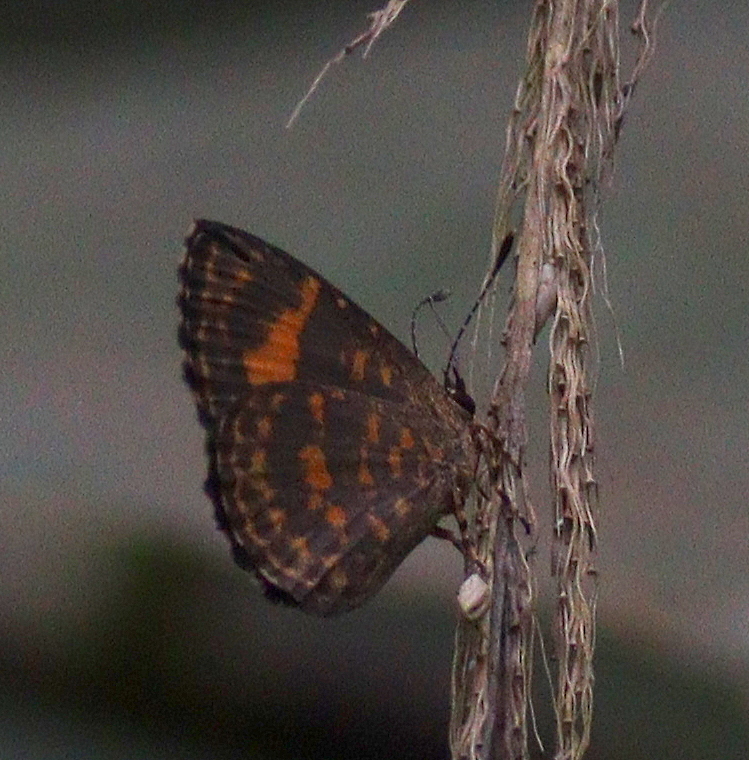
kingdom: Animalia
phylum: Arthropoda
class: Insecta
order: Lepidoptera
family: Lycaenidae
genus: Epitolina
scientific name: Epitolina catori
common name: Red-patch epitolina
